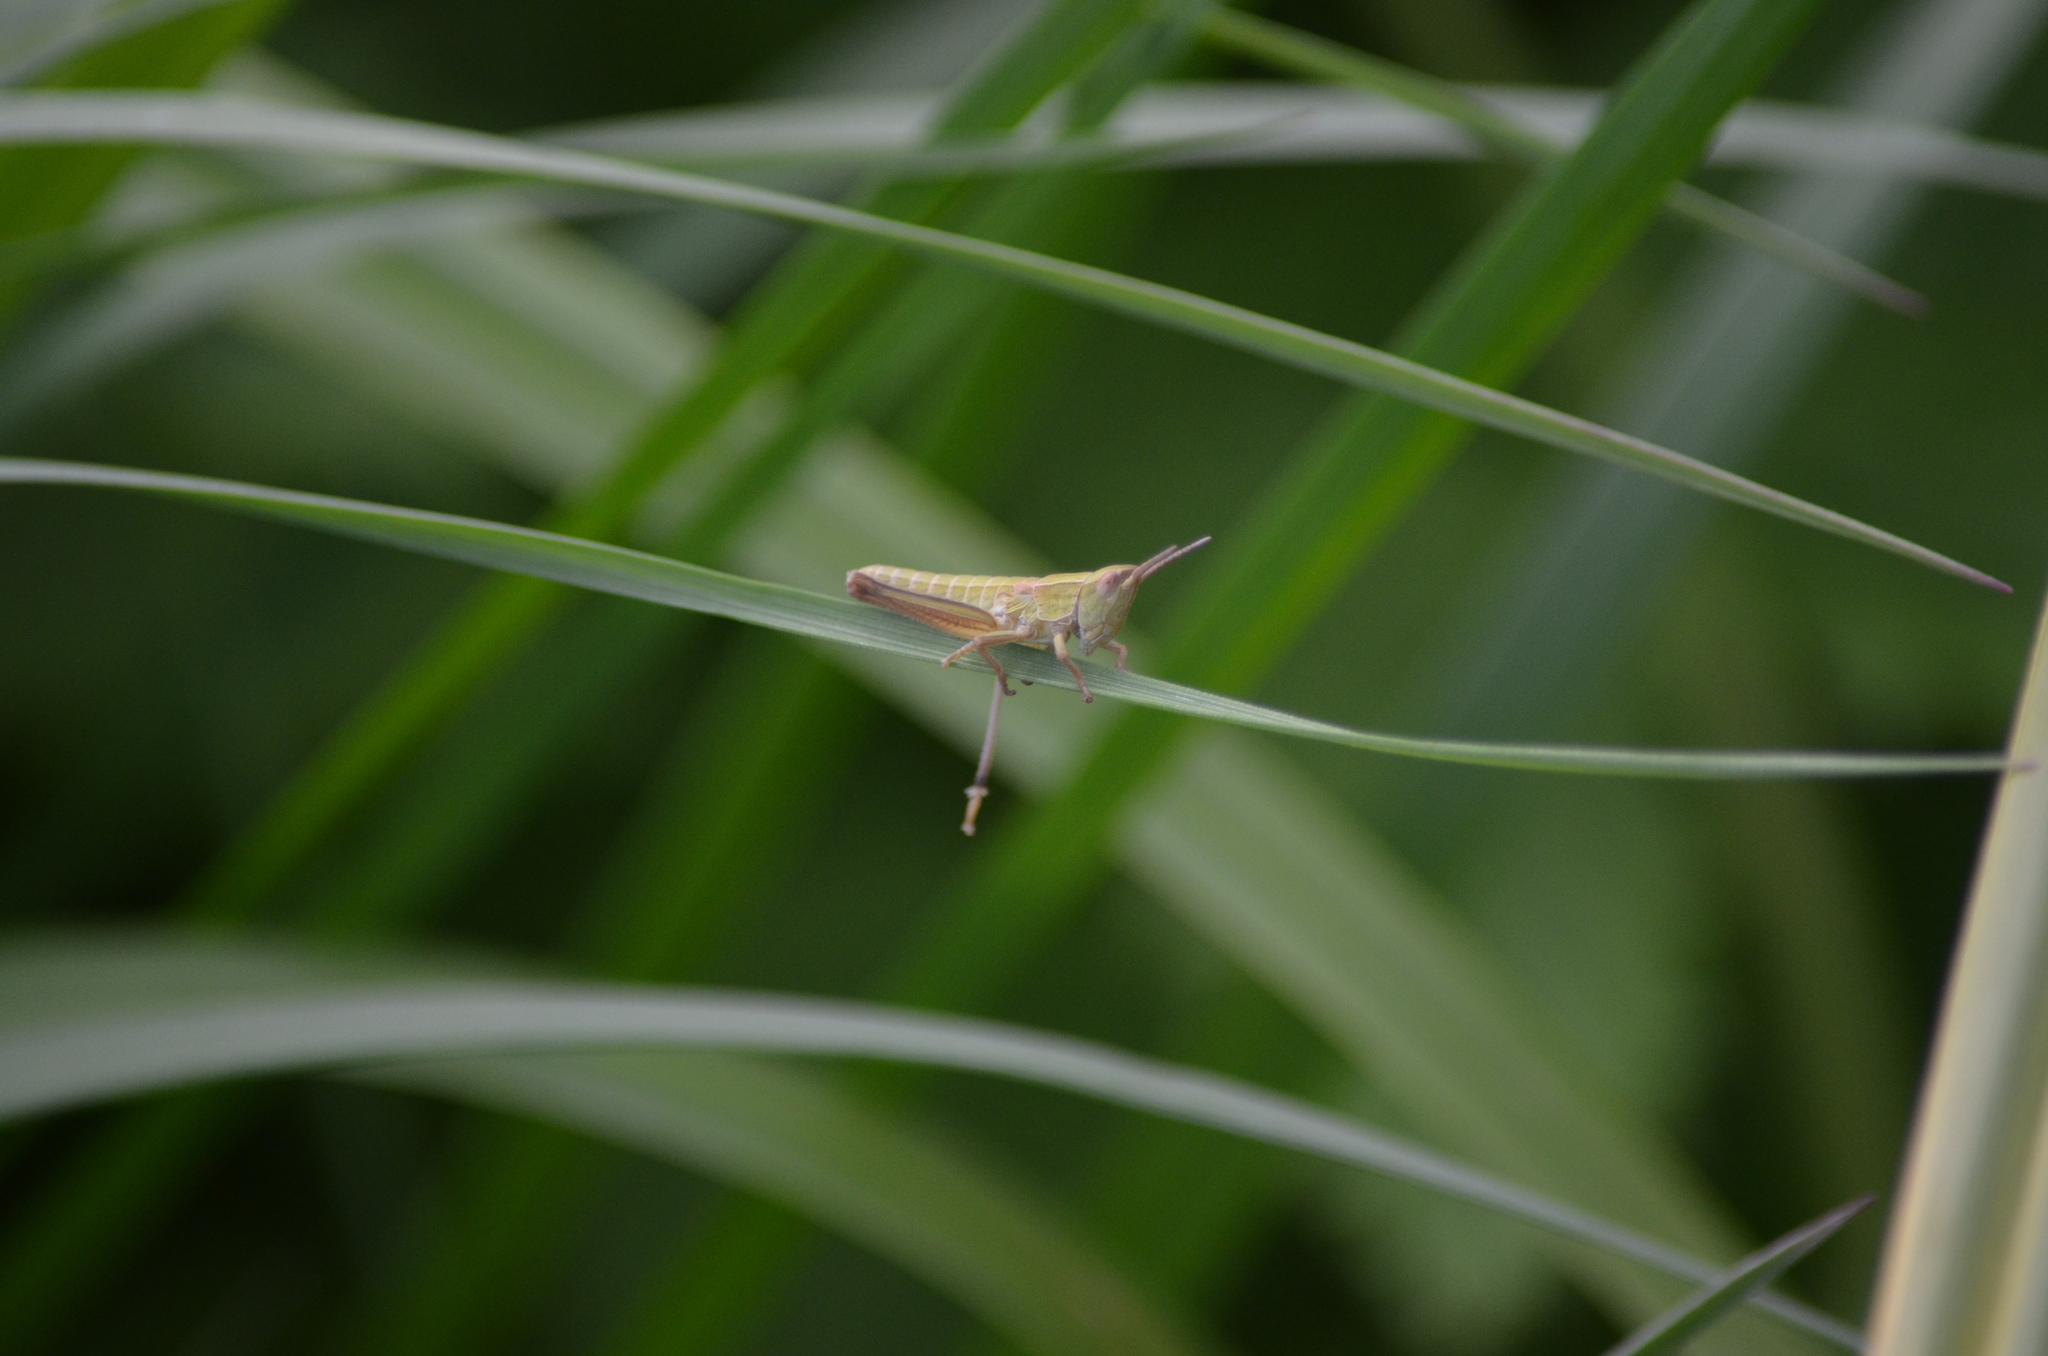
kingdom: Animalia
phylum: Arthropoda
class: Insecta
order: Orthoptera
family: Acrididae
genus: Euthystira
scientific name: Euthystira brachyptera
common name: Small gold grasshopper
